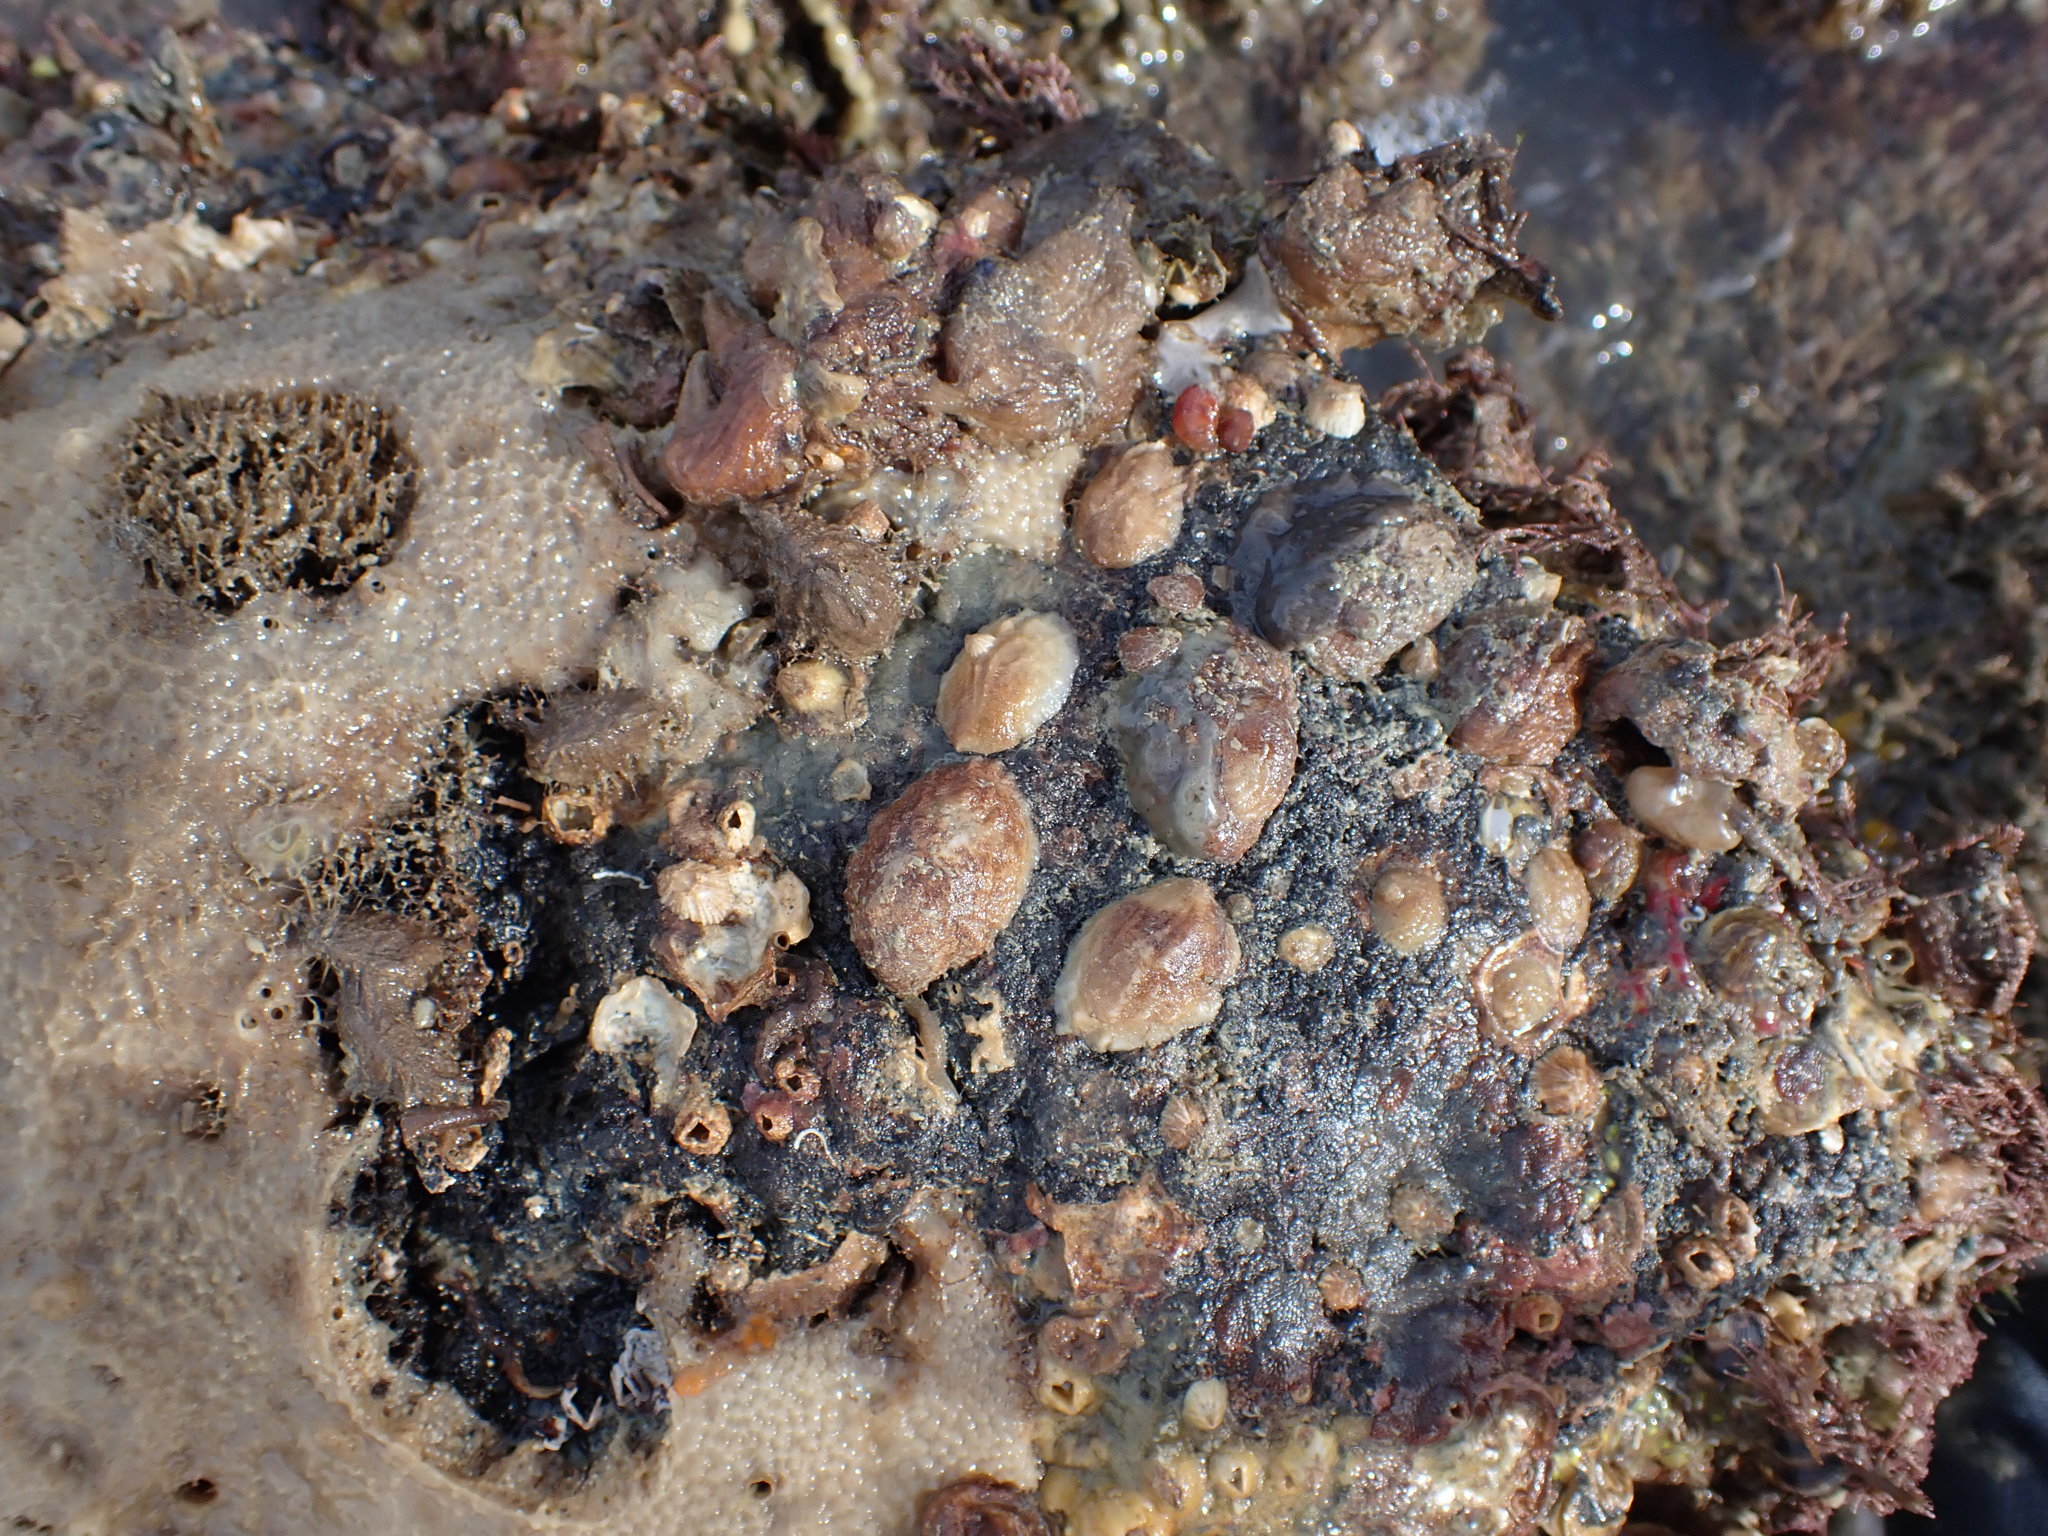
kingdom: Animalia
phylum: Mollusca
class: Gastropoda
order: Littorinimorpha
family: Calyptraeidae
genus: Maoricrypta
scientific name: Maoricrypta costata
